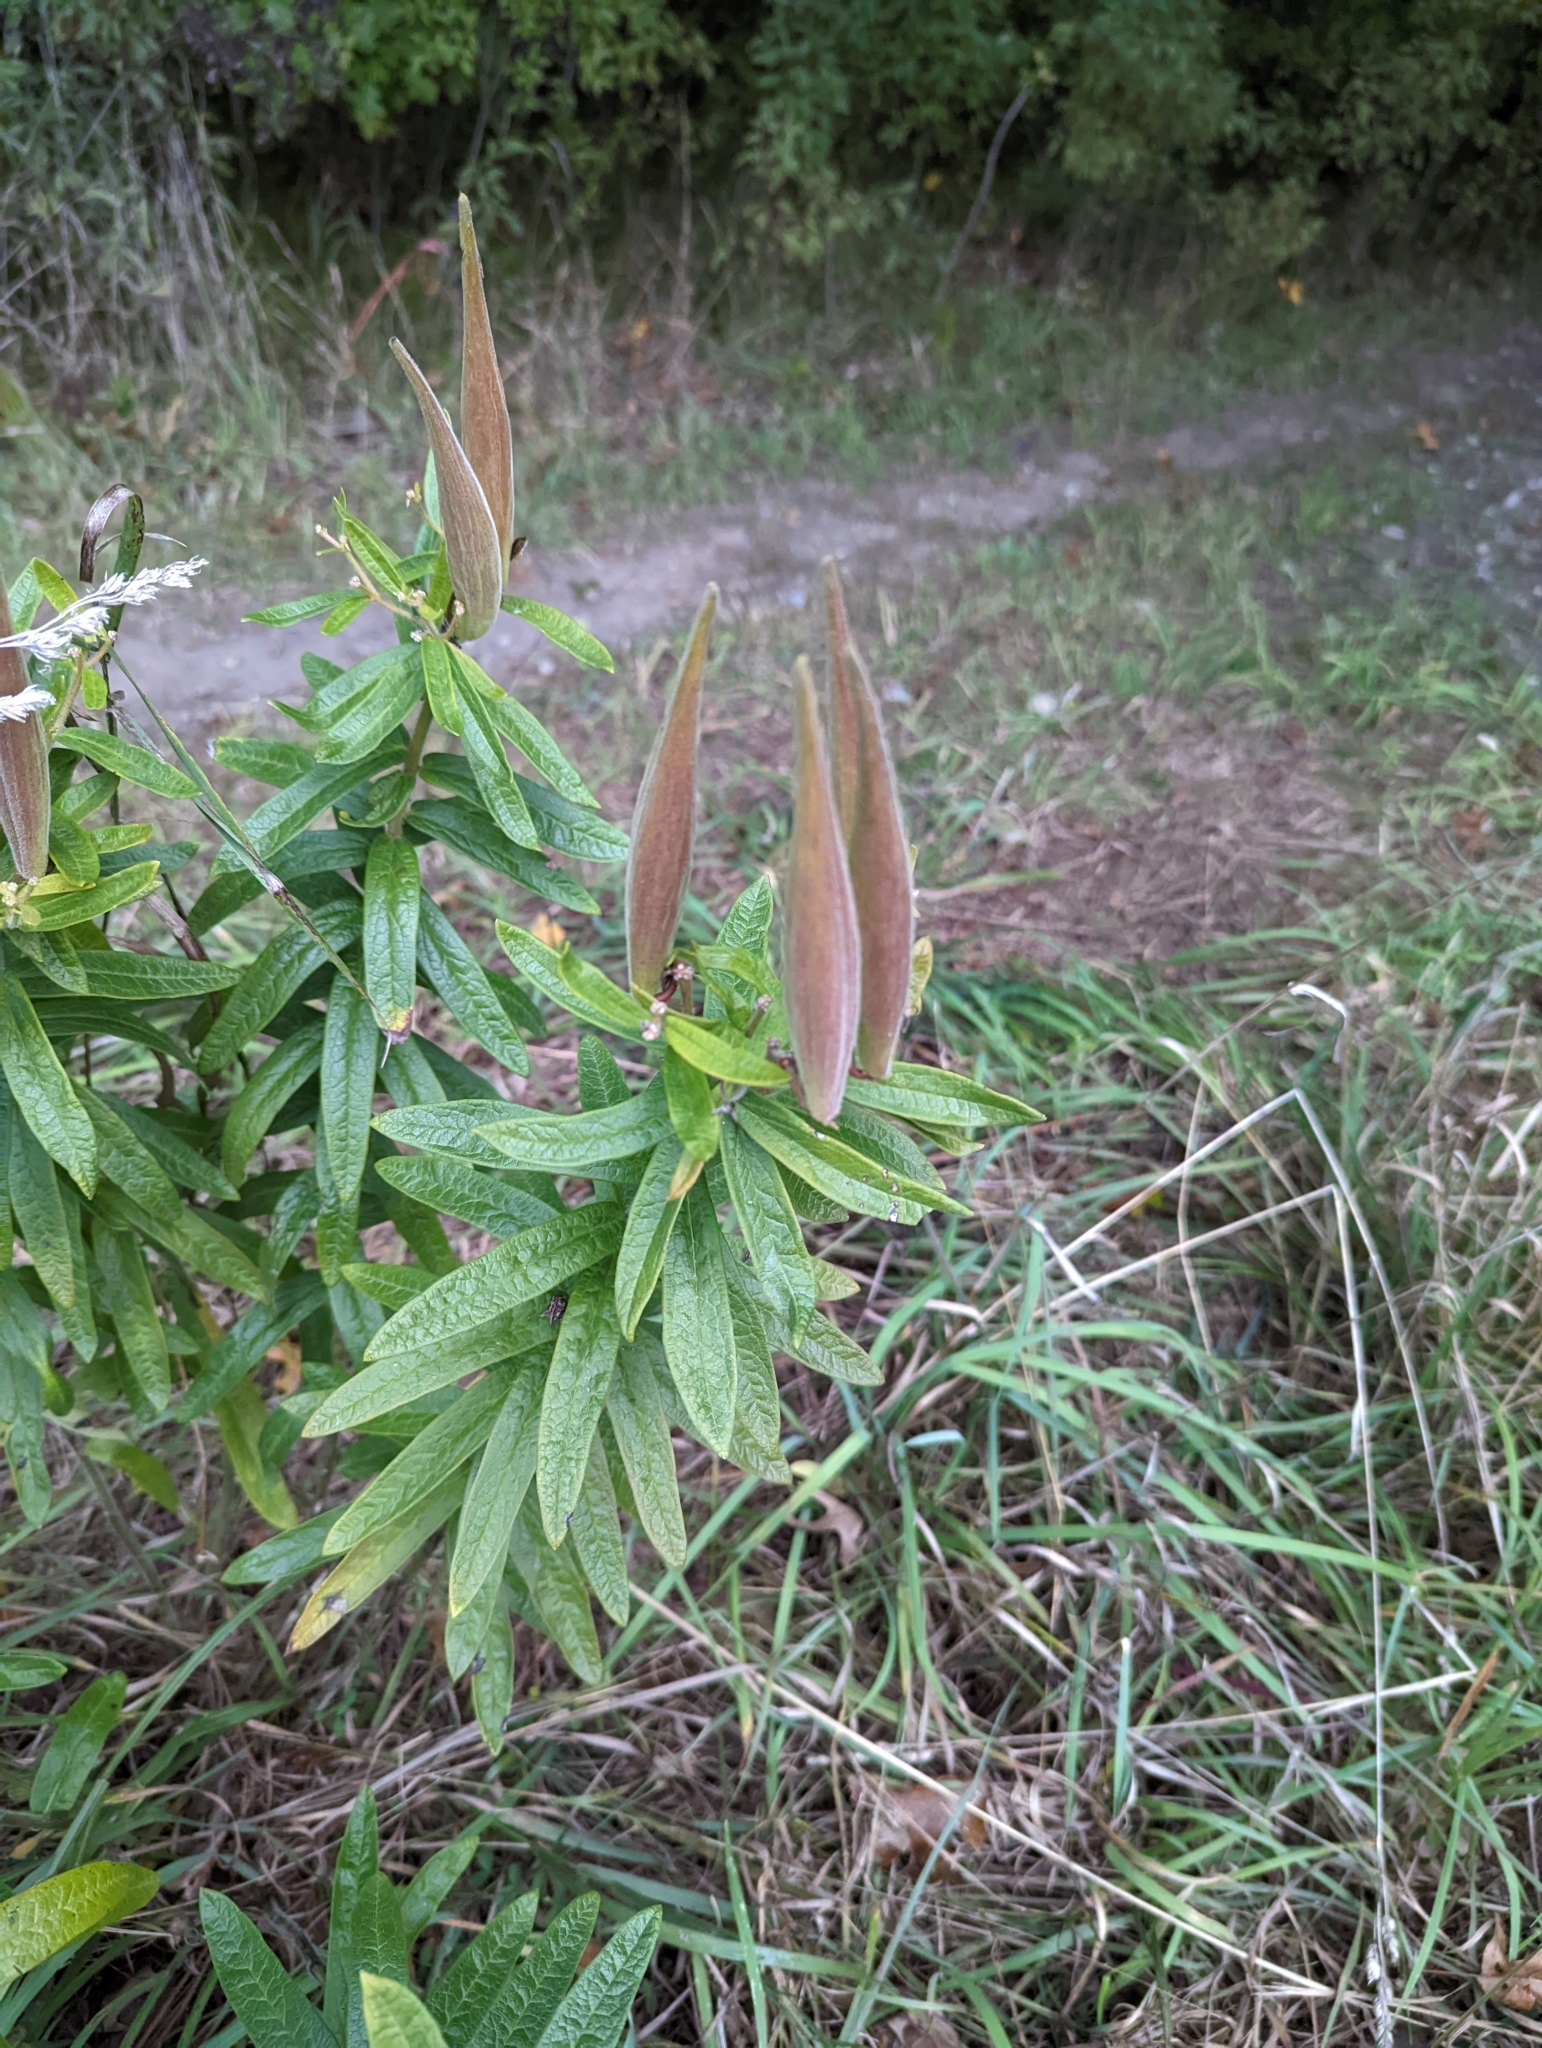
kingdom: Plantae
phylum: Tracheophyta
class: Magnoliopsida
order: Gentianales
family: Apocynaceae
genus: Asclepias
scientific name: Asclepias tuberosa
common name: Butterfly milkweed
